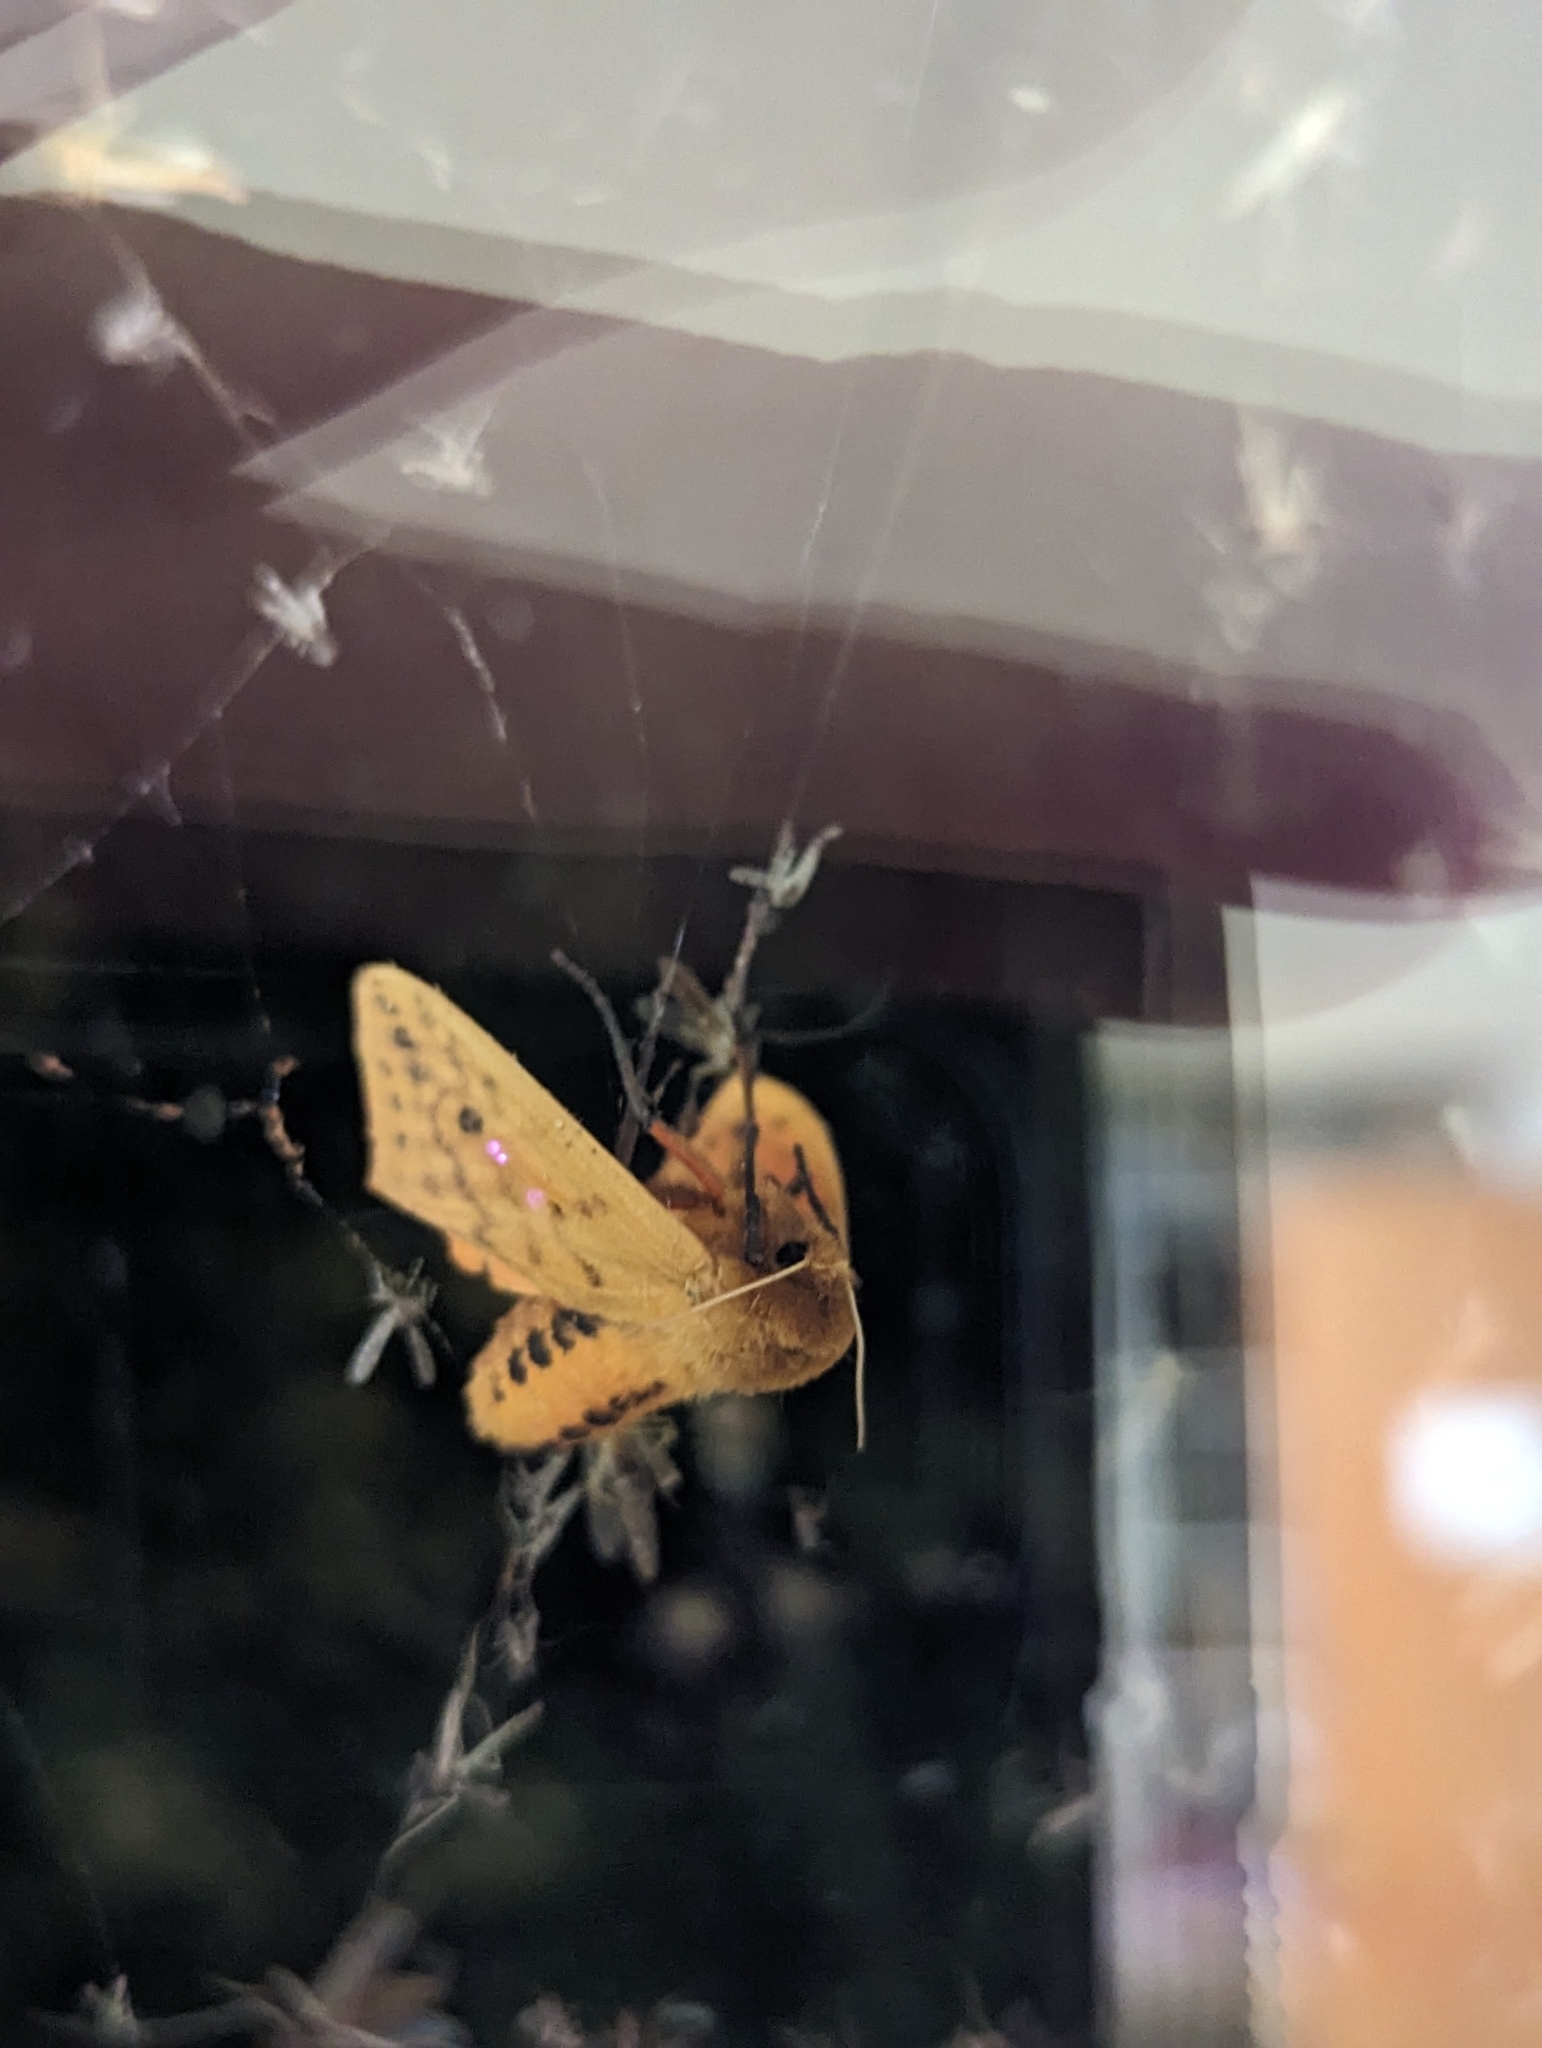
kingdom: Animalia
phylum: Arthropoda
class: Insecta
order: Lepidoptera
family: Erebidae
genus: Pyrrharctia
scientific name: Pyrrharctia isabella
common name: Isabella tiger moth
